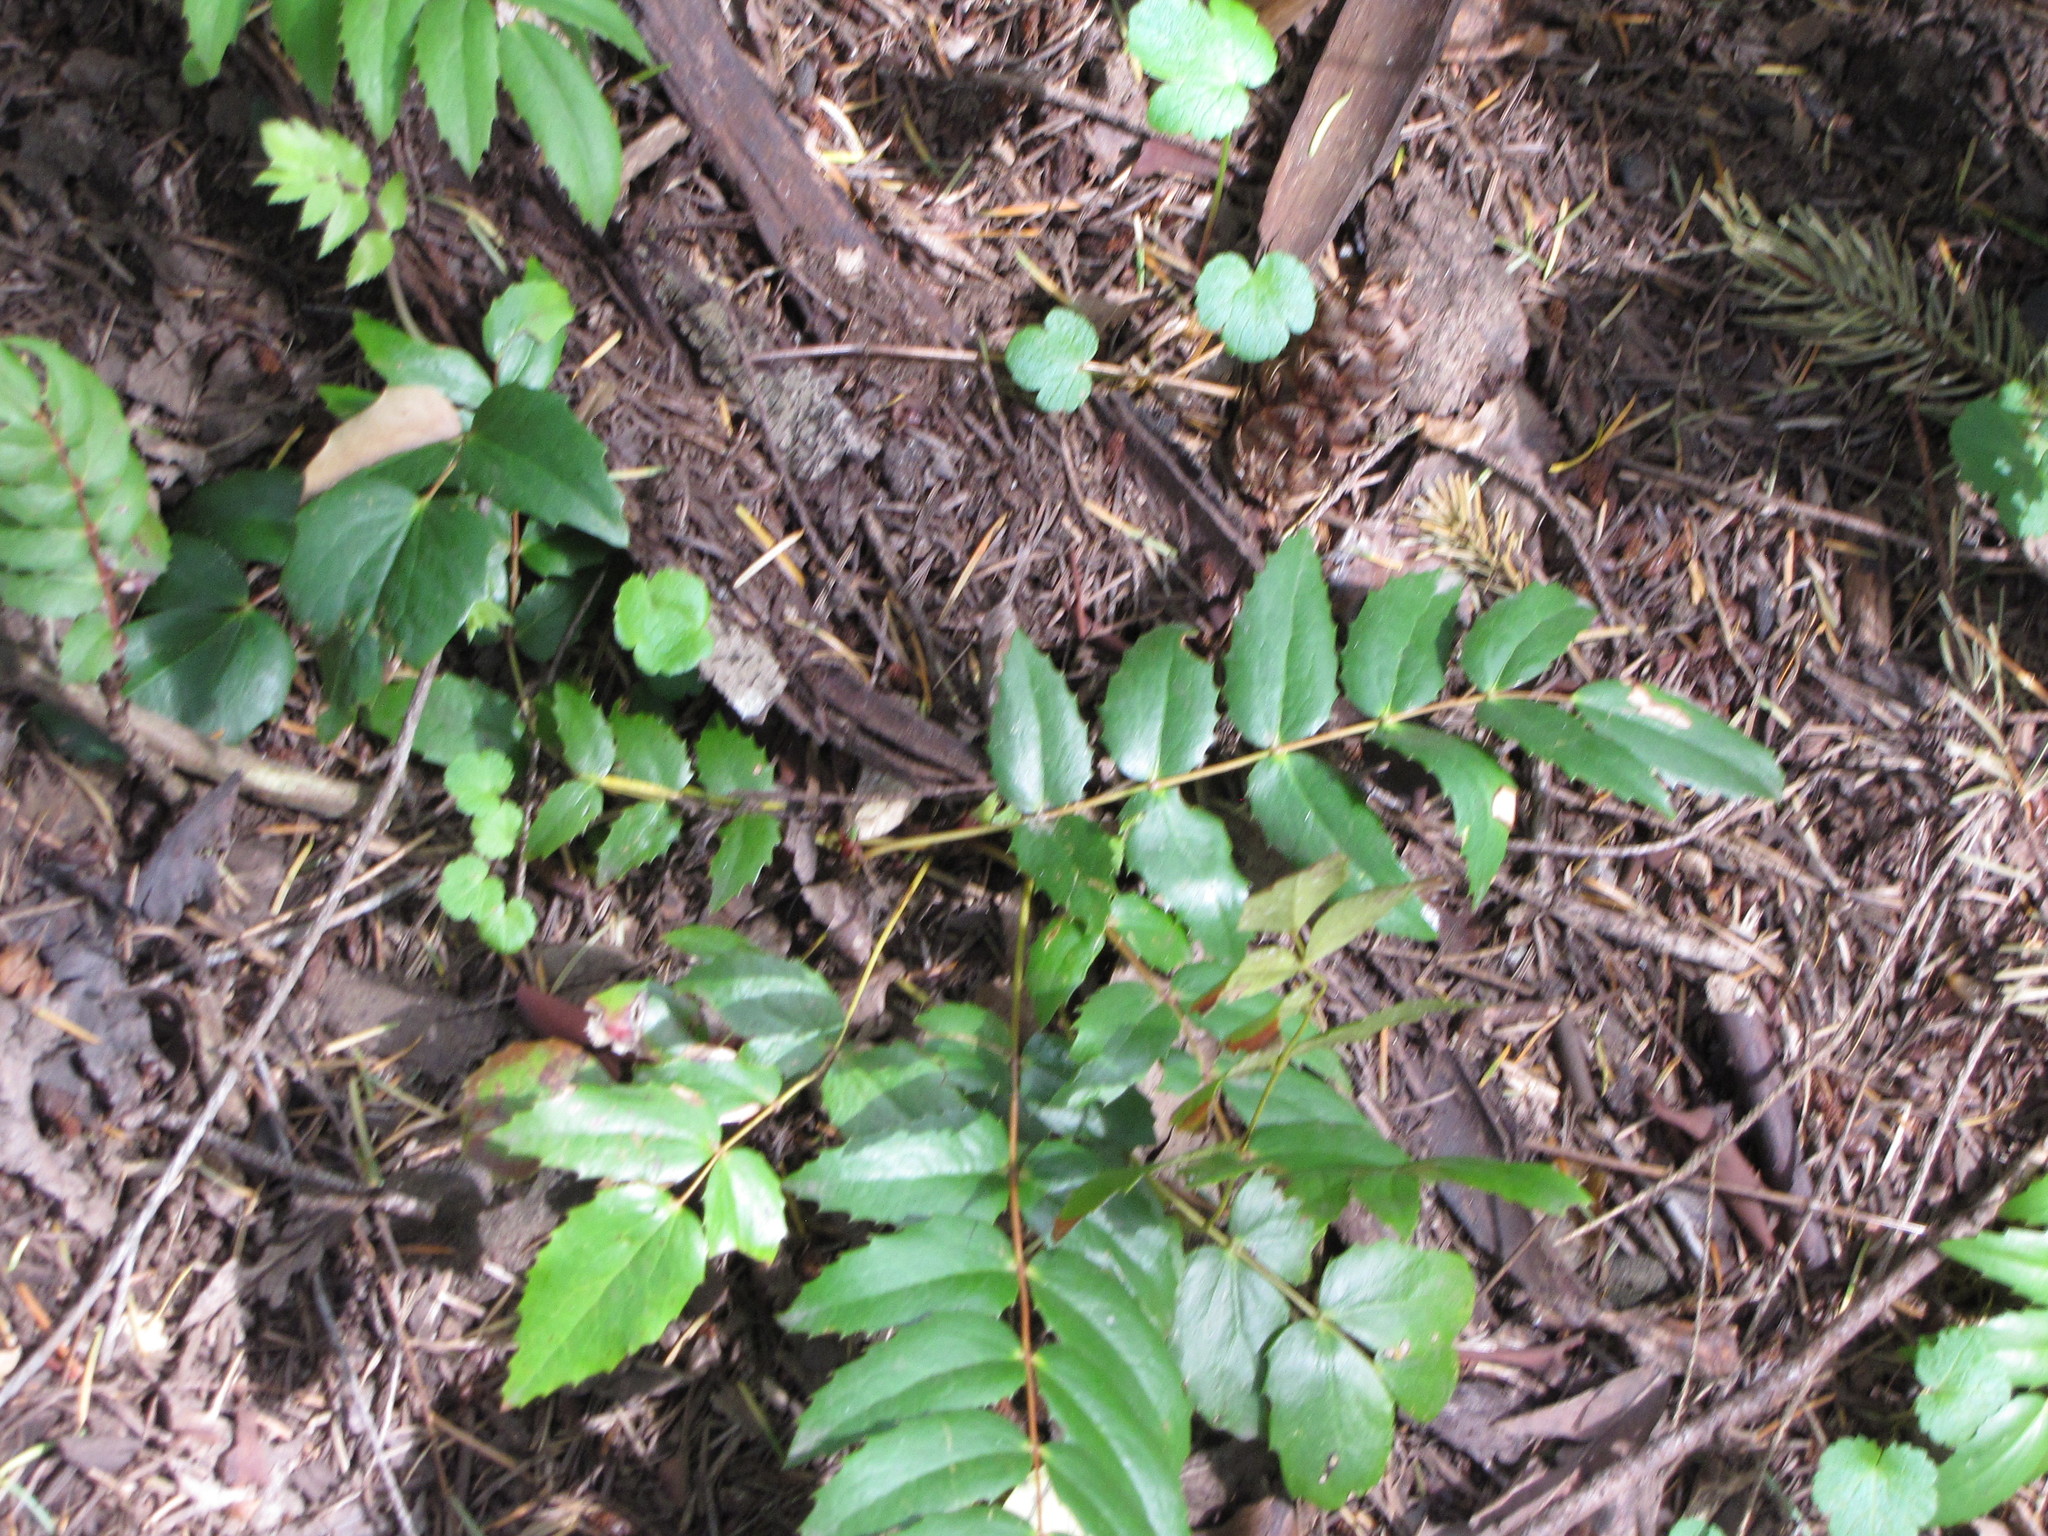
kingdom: Plantae
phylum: Tracheophyta
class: Magnoliopsida
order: Ranunculales
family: Berberidaceae
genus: Mahonia
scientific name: Mahonia nervosa
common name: Cascade oregon-grape
